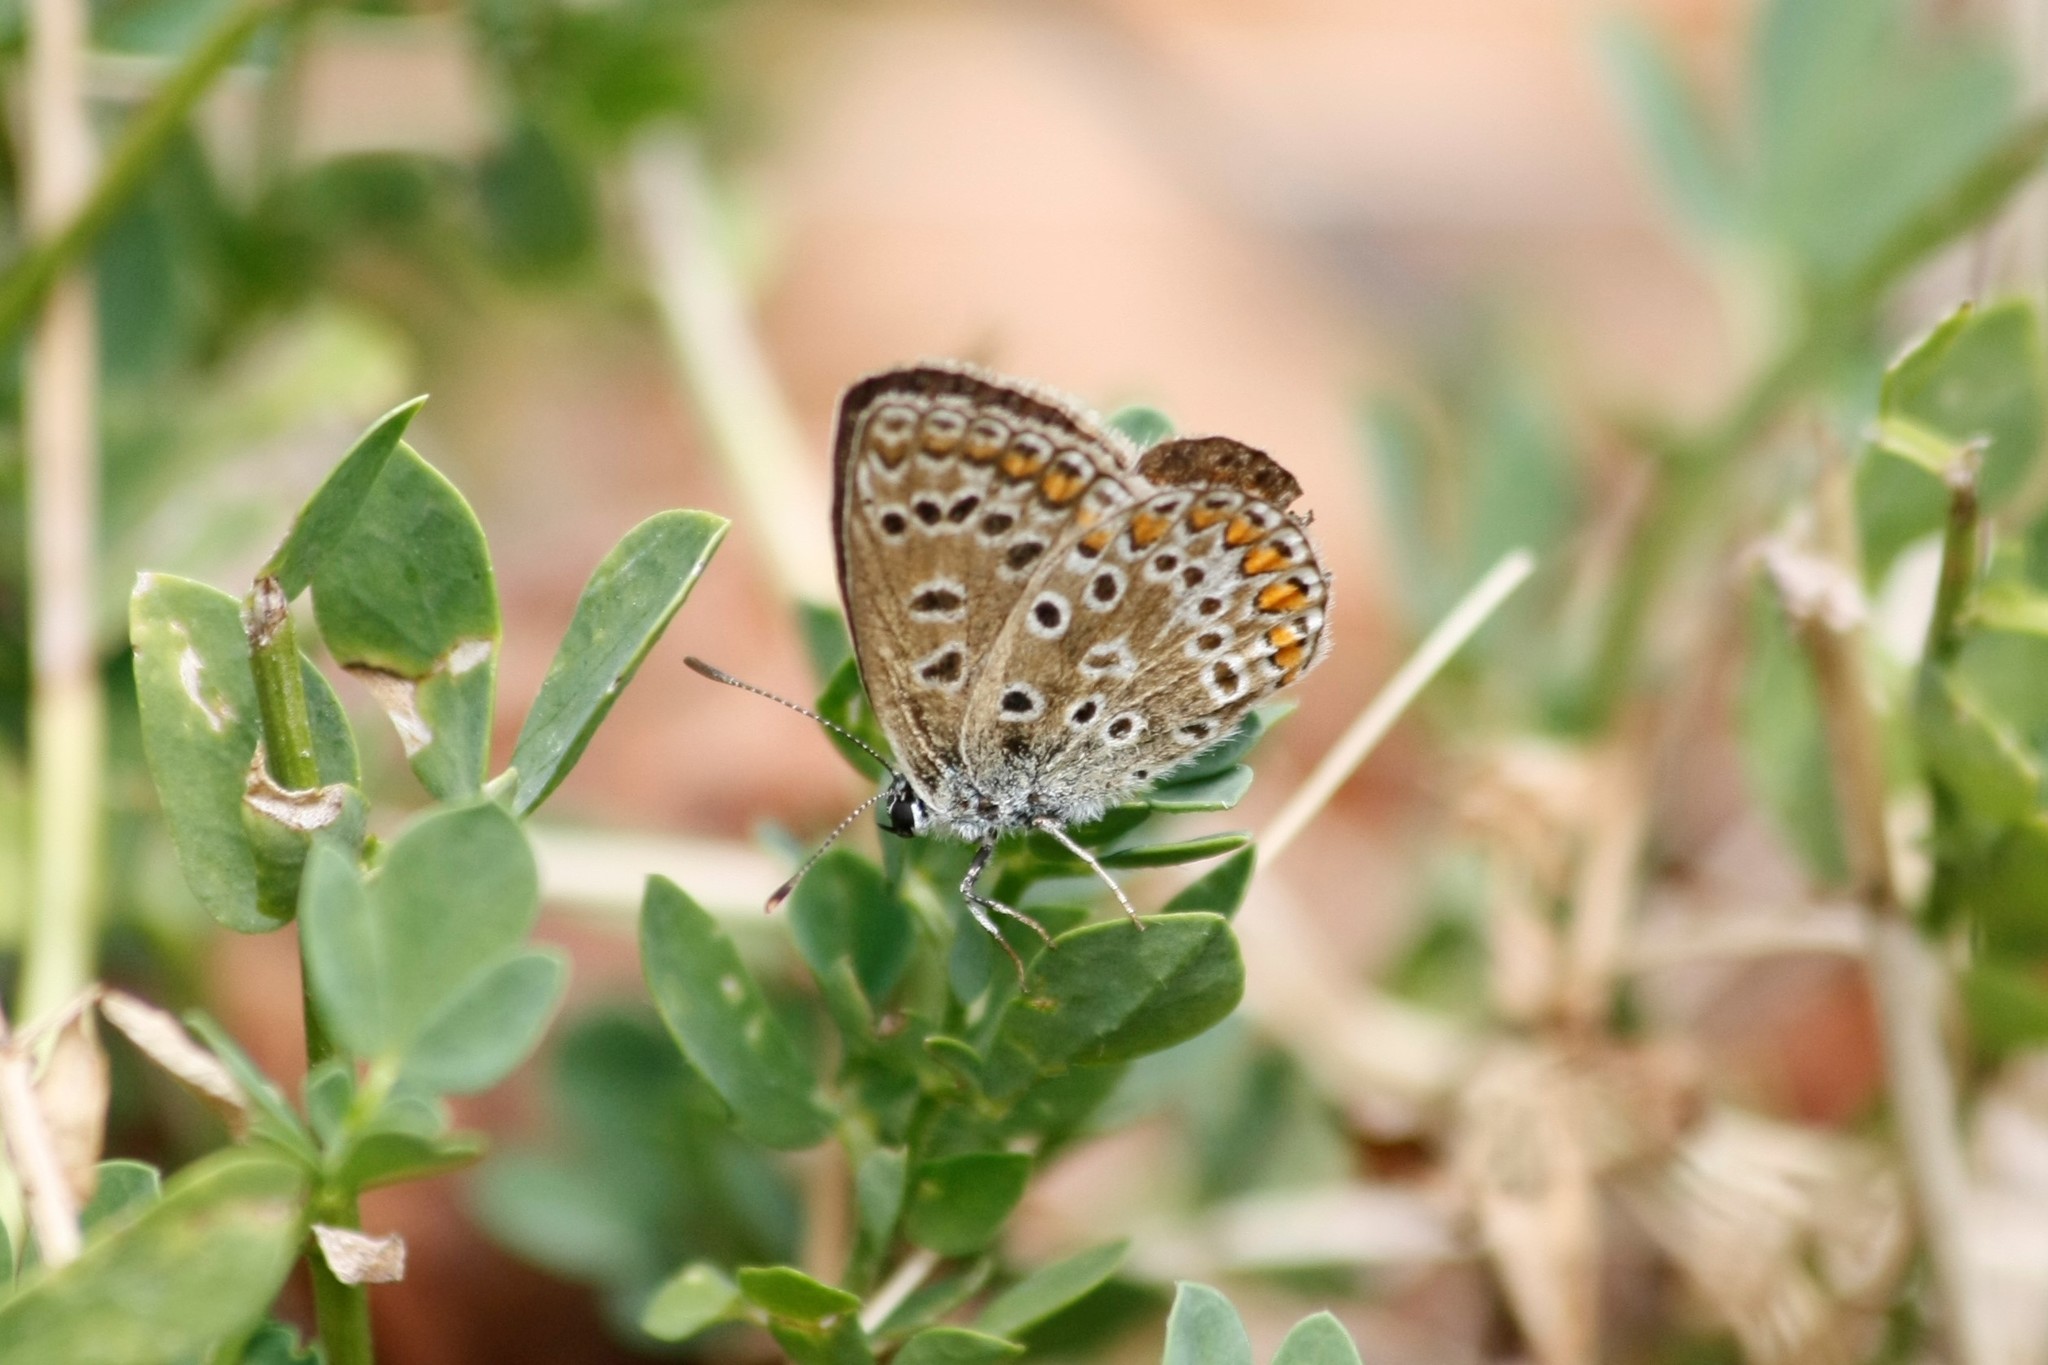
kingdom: Animalia
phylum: Arthropoda
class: Insecta
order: Lepidoptera
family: Lycaenidae
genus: Polyommatus
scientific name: Polyommatus icarus
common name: Common blue
